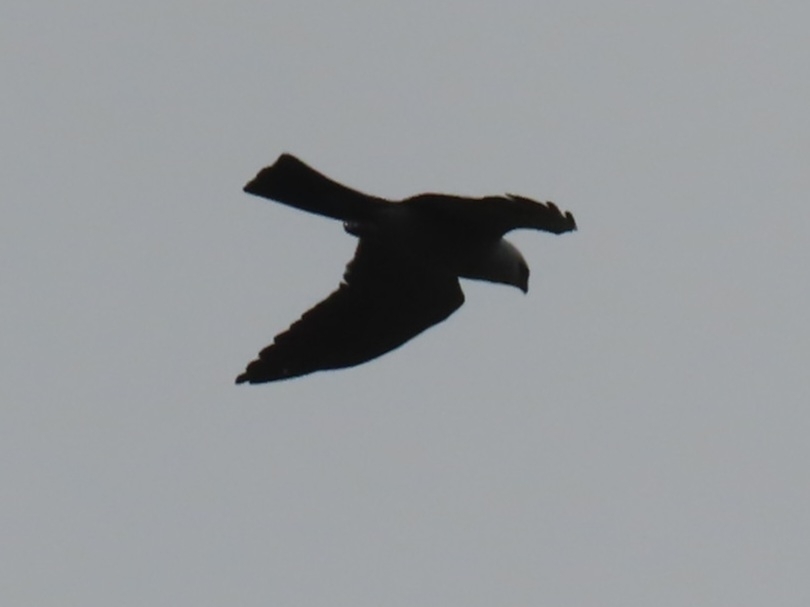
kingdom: Animalia
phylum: Chordata
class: Aves
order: Accipitriformes
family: Accipitridae
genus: Ictinia
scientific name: Ictinia mississippiensis
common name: Mississippi kite
